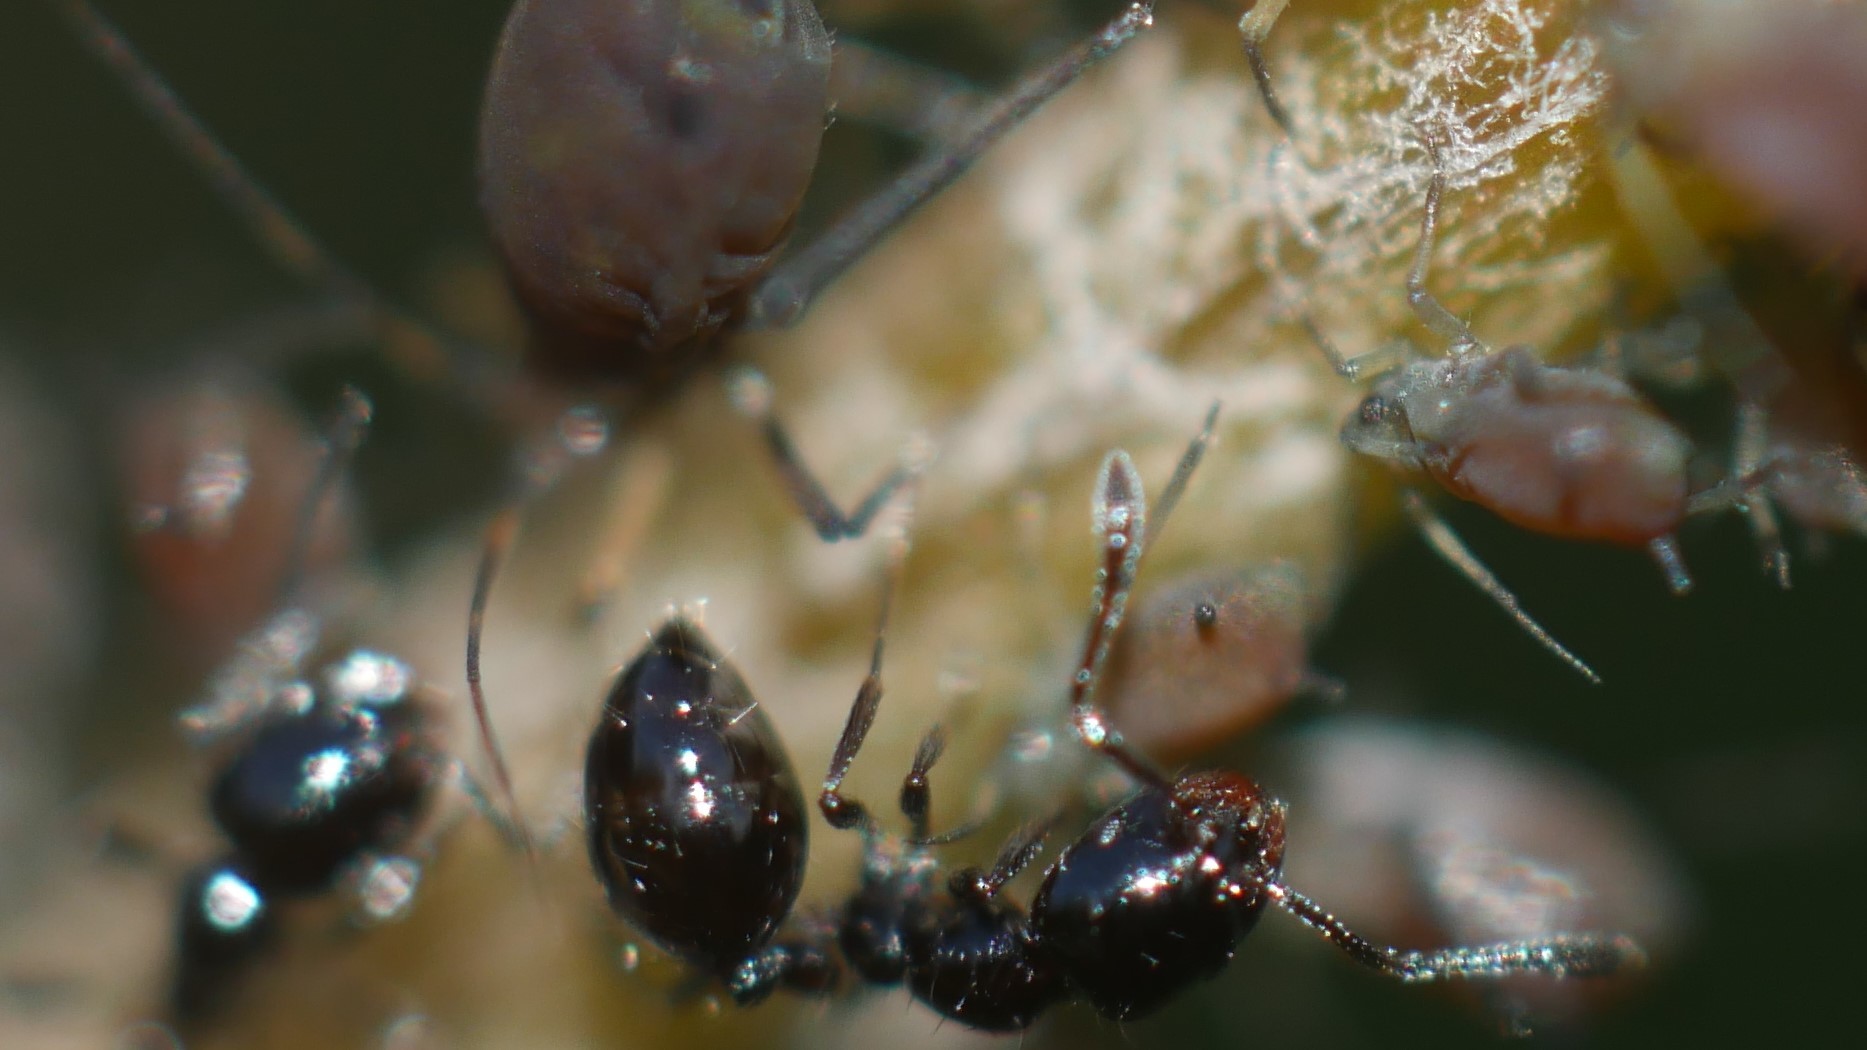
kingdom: Animalia
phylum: Arthropoda
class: Insecta
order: Hymenoptera
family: Formicidae
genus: Monomorium
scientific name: Monomorium minimum
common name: Little black ant
